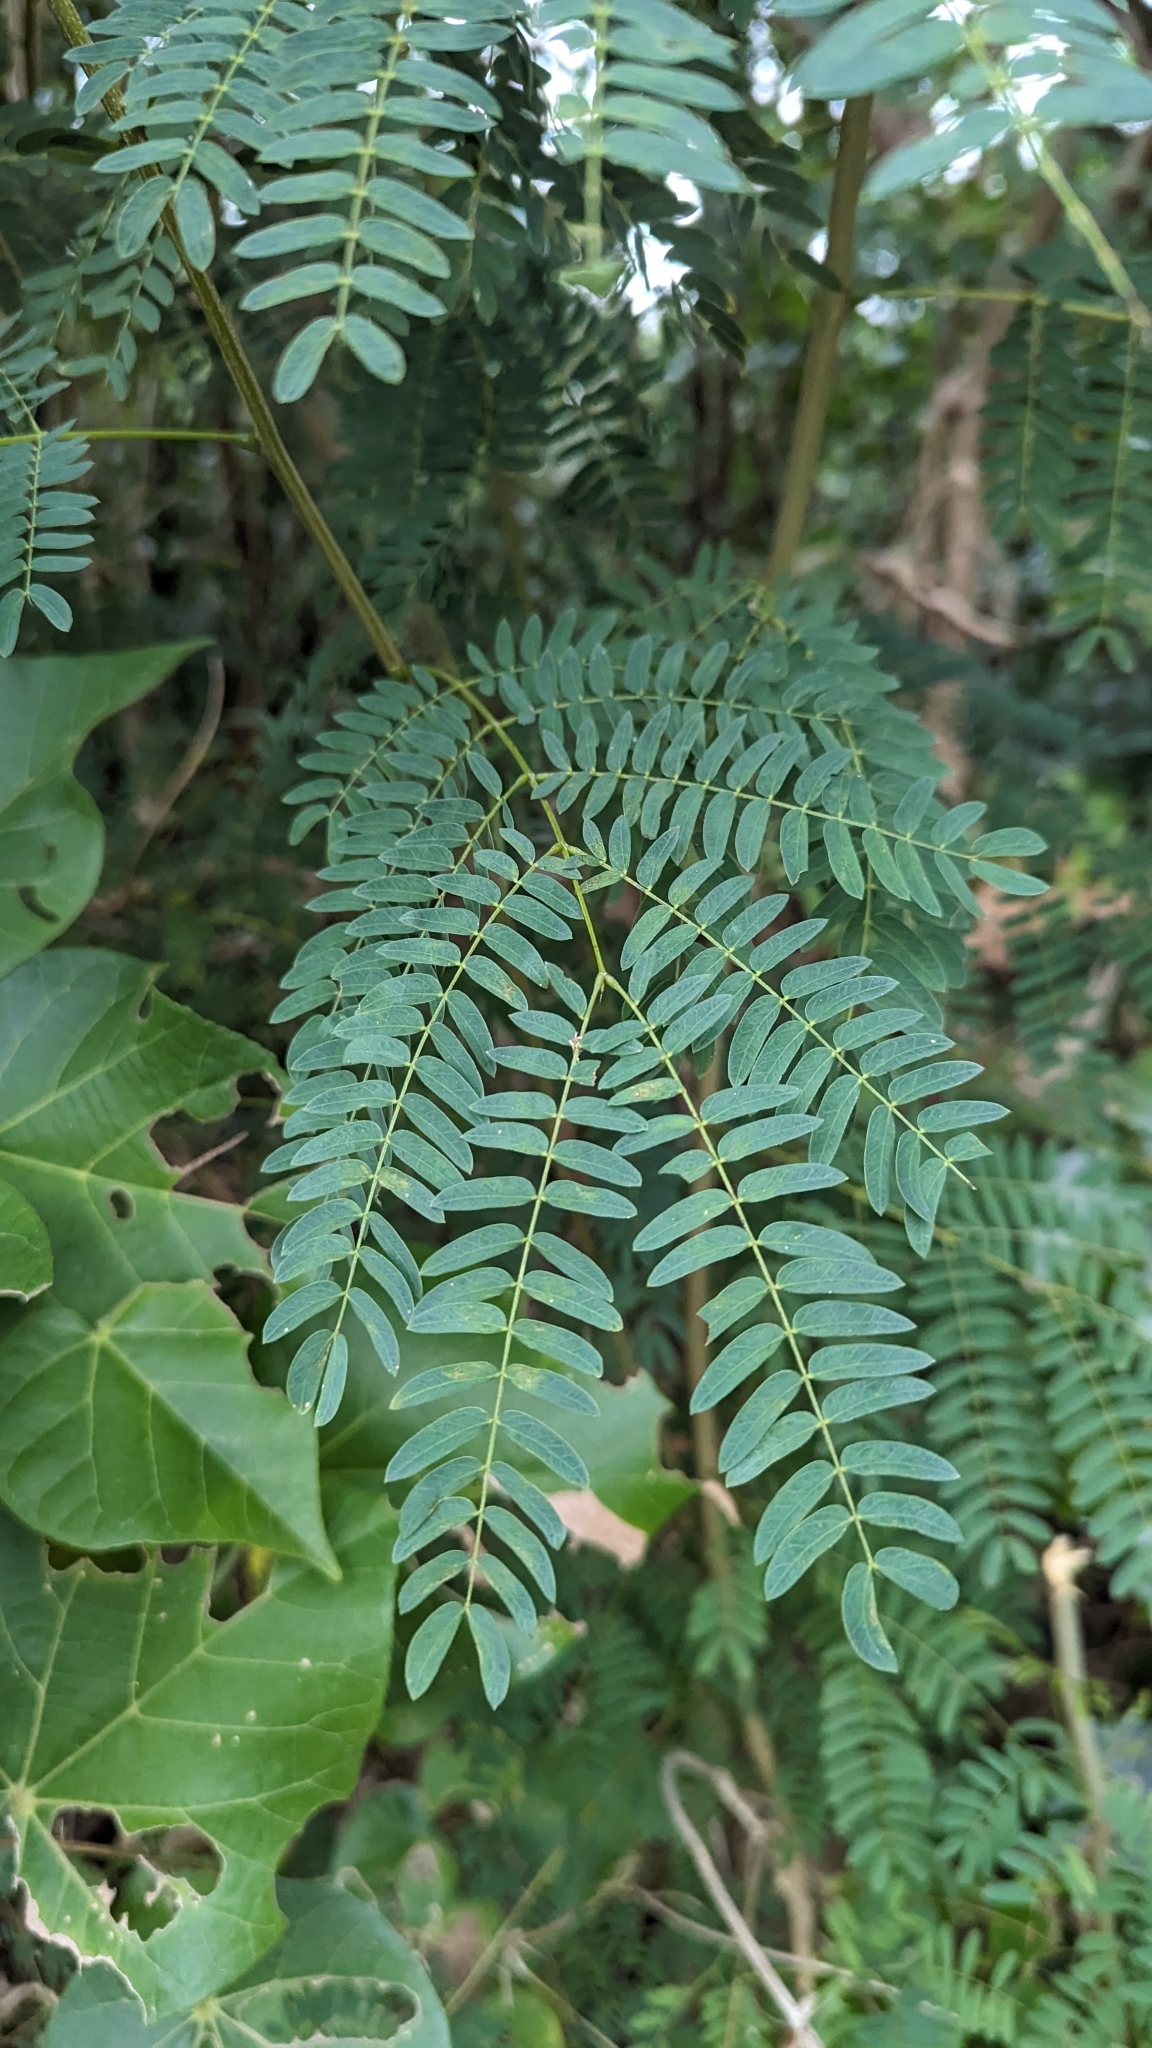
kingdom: Plantae
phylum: Tracheophyta
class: Magnoliopsida
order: Fabales
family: Fabaceae
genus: Leucaena
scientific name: Leucaena leucocephala
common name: White leadtree
